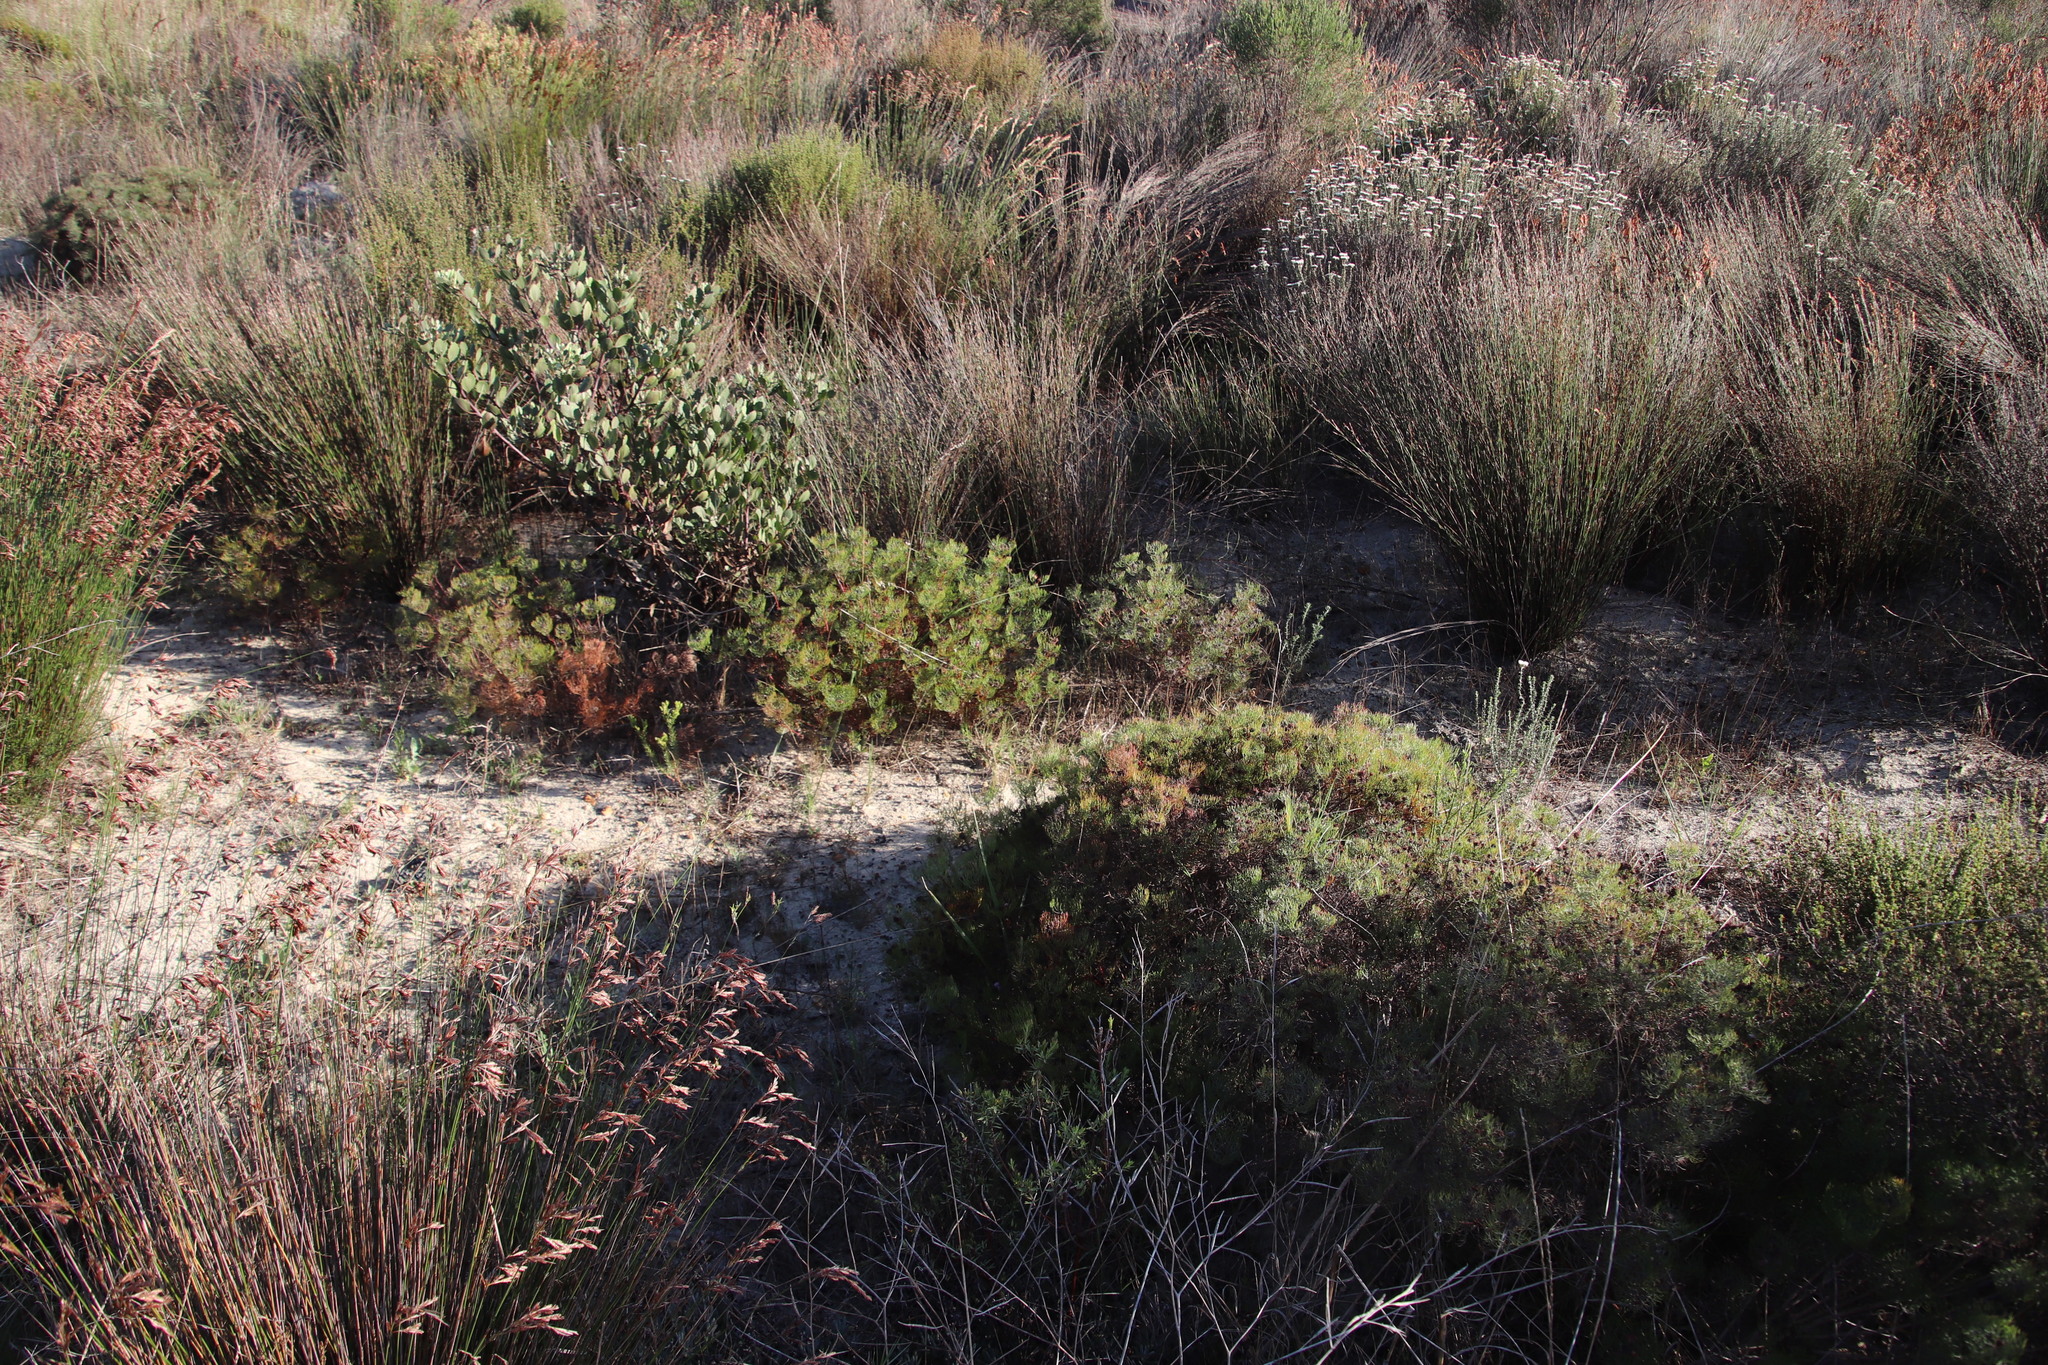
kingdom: Plantae
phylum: Tracheophyta
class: Magnoliopsida
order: Proteales
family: Proteaceae
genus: Serruria
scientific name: Serruria fasciflora
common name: Common pin spiderhead
